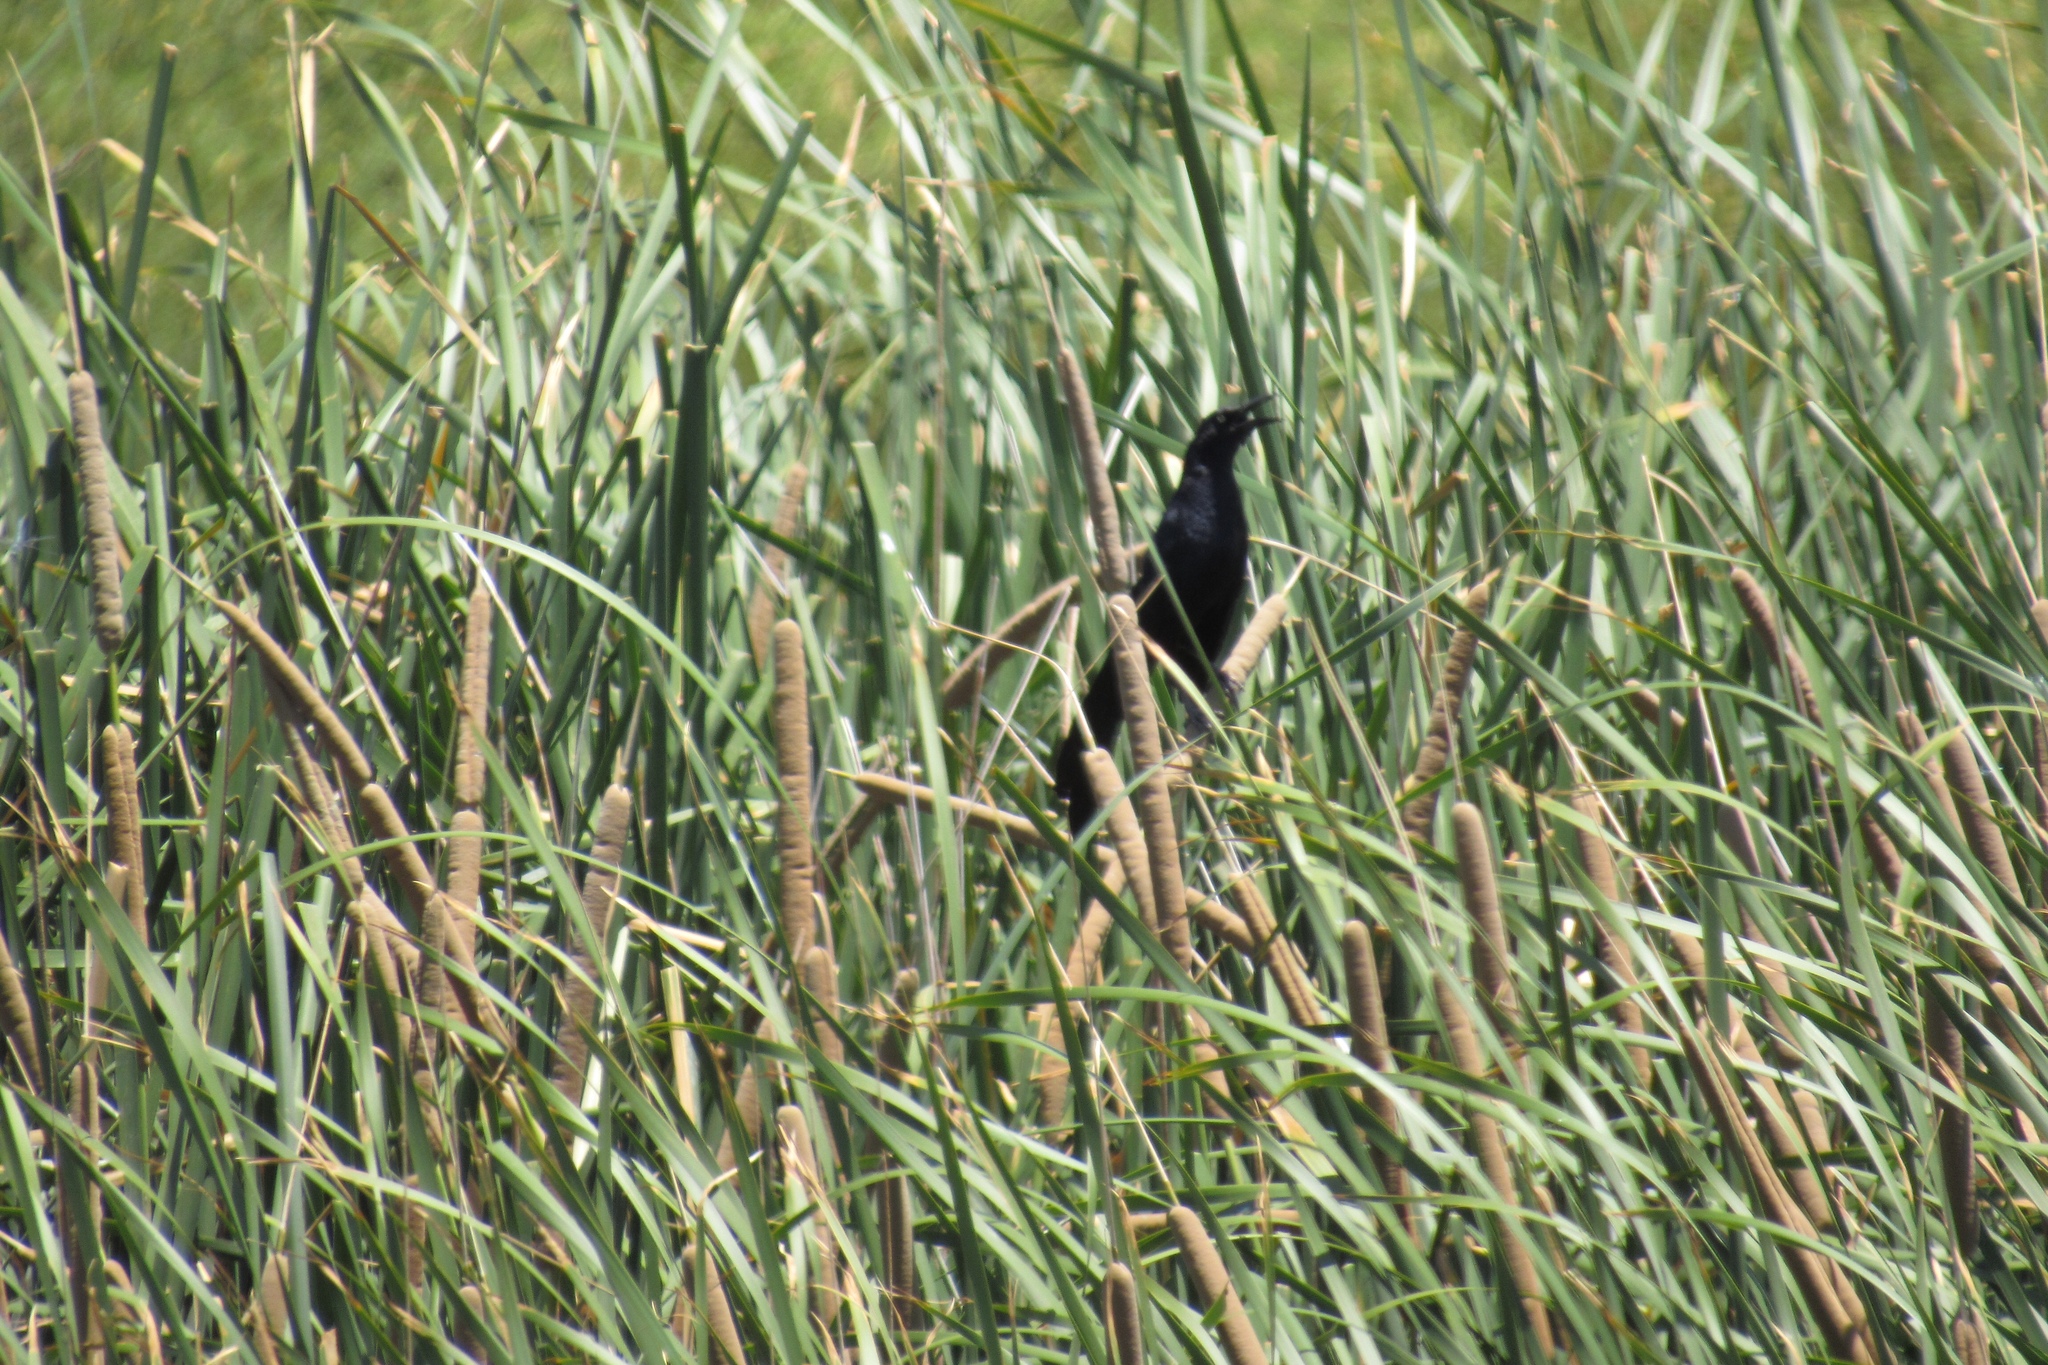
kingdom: Animalia
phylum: Chordata
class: Aves
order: Passeriformes
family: Icteridae
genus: Quiscalus
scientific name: Quiscalus mexicanus
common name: Great-tailed grackle
